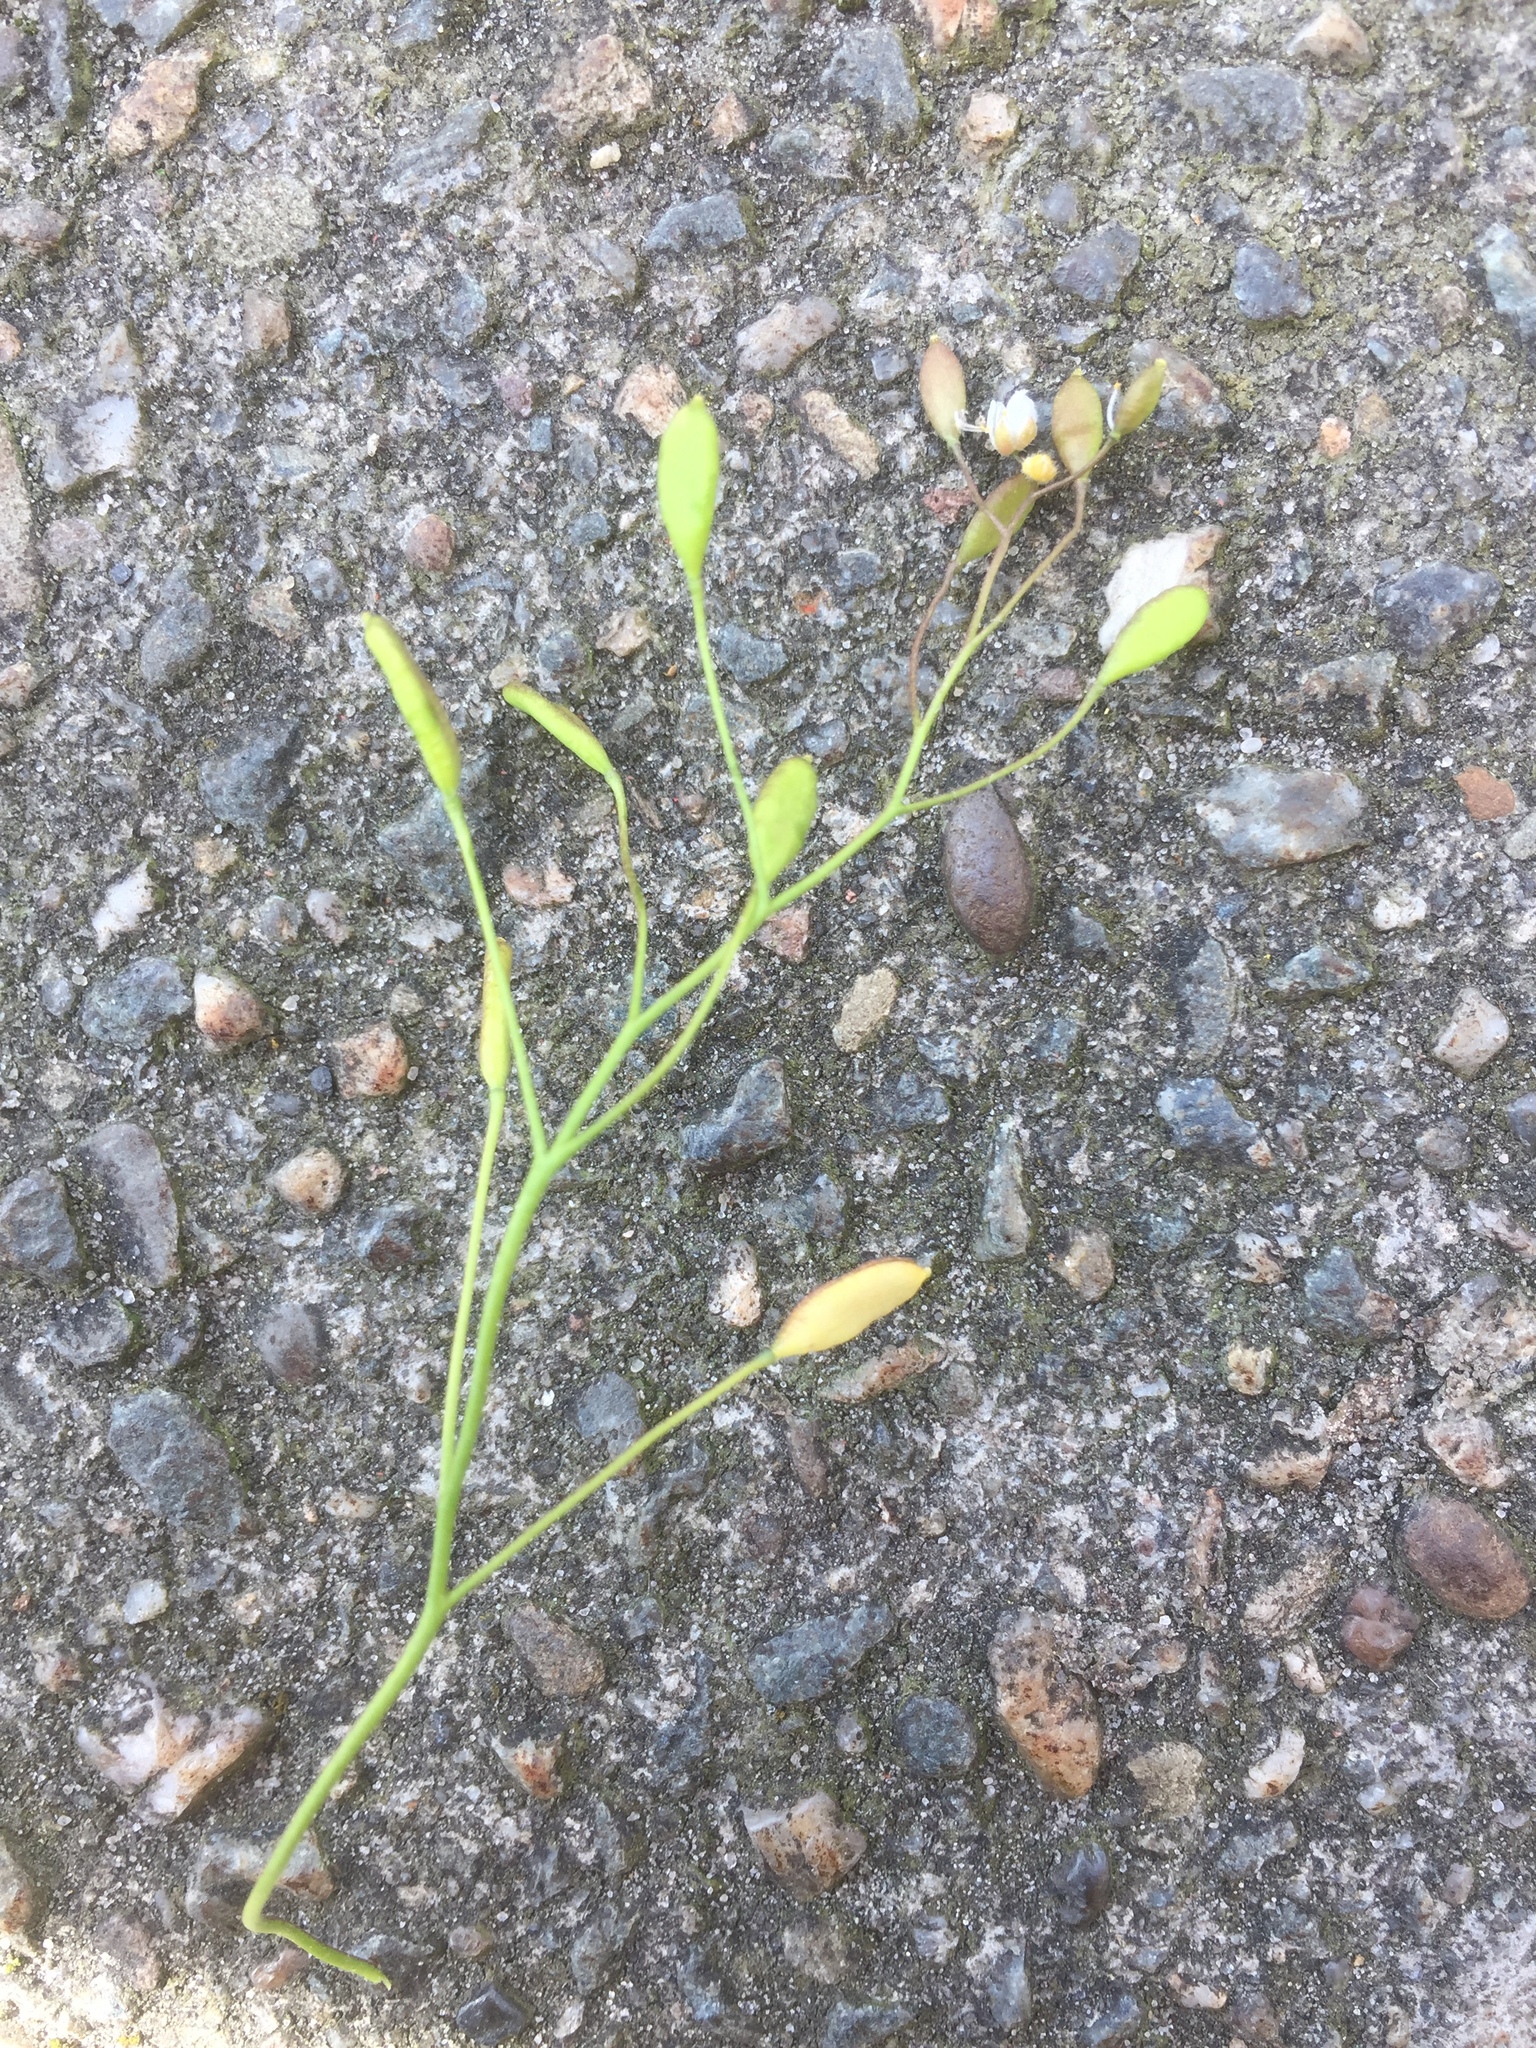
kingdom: Plantae
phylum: Tracheophyta
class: Magnoliopsida
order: Brassicales
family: Brassicaceae
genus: Draba
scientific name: Draba verna
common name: Spring draba
